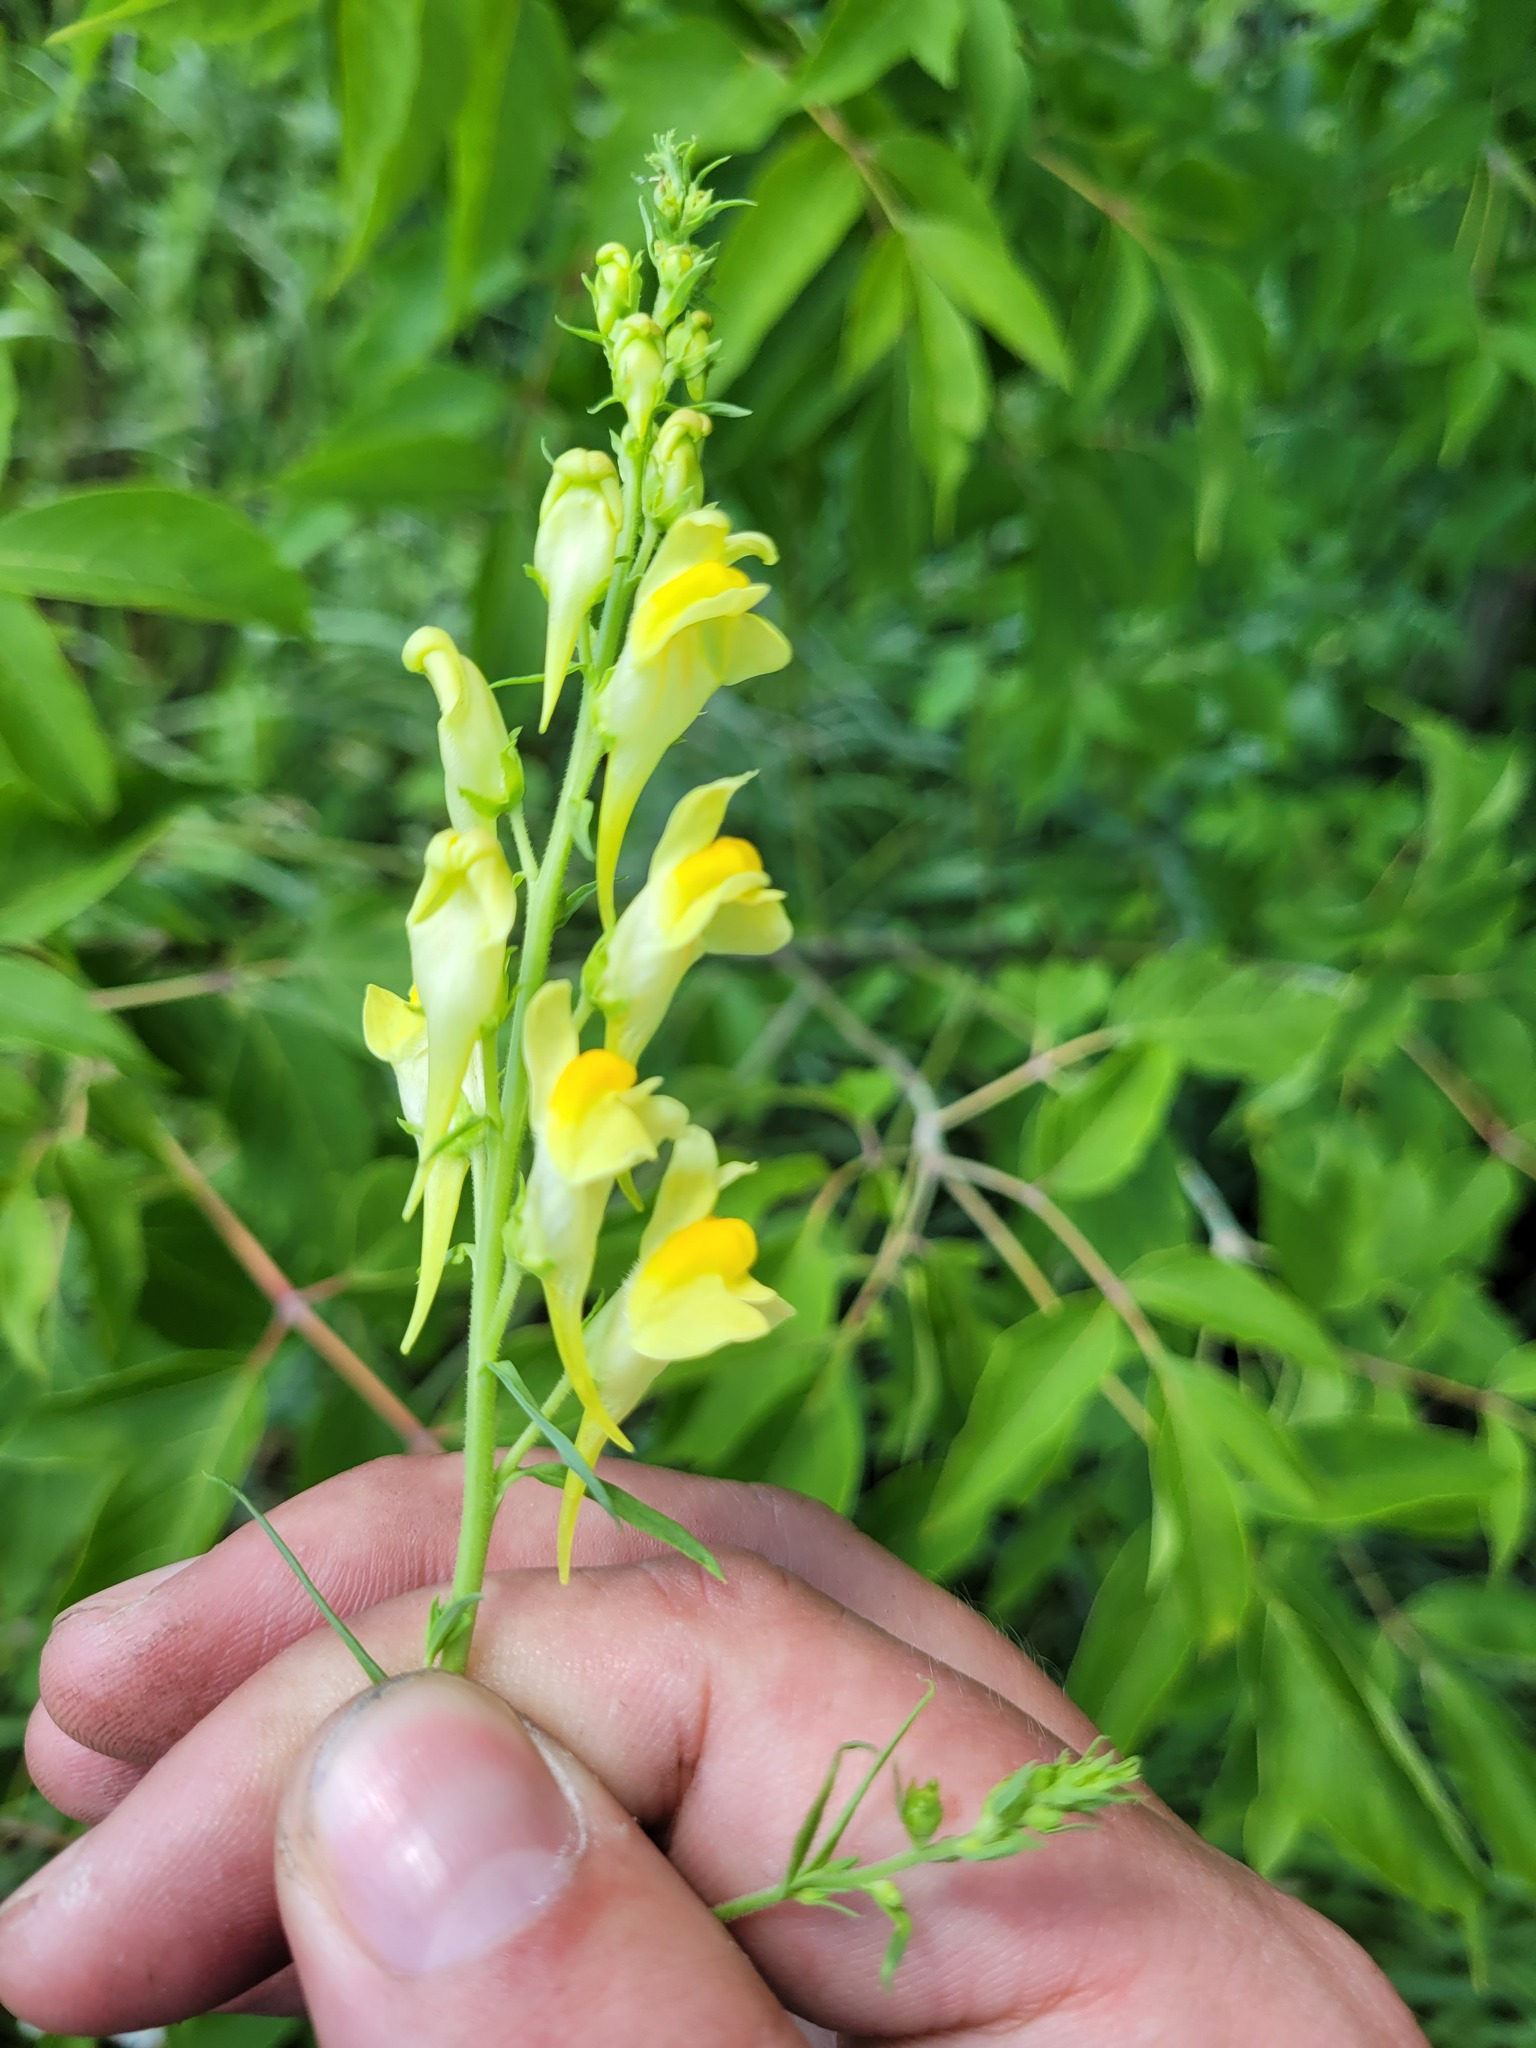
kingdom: Plantae
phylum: Tracheophyta
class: Magnoliopsida
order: Lamiales
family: Plantaginaceae
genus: Linaria
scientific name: Linaria vulgaris
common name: Butter and eggs
